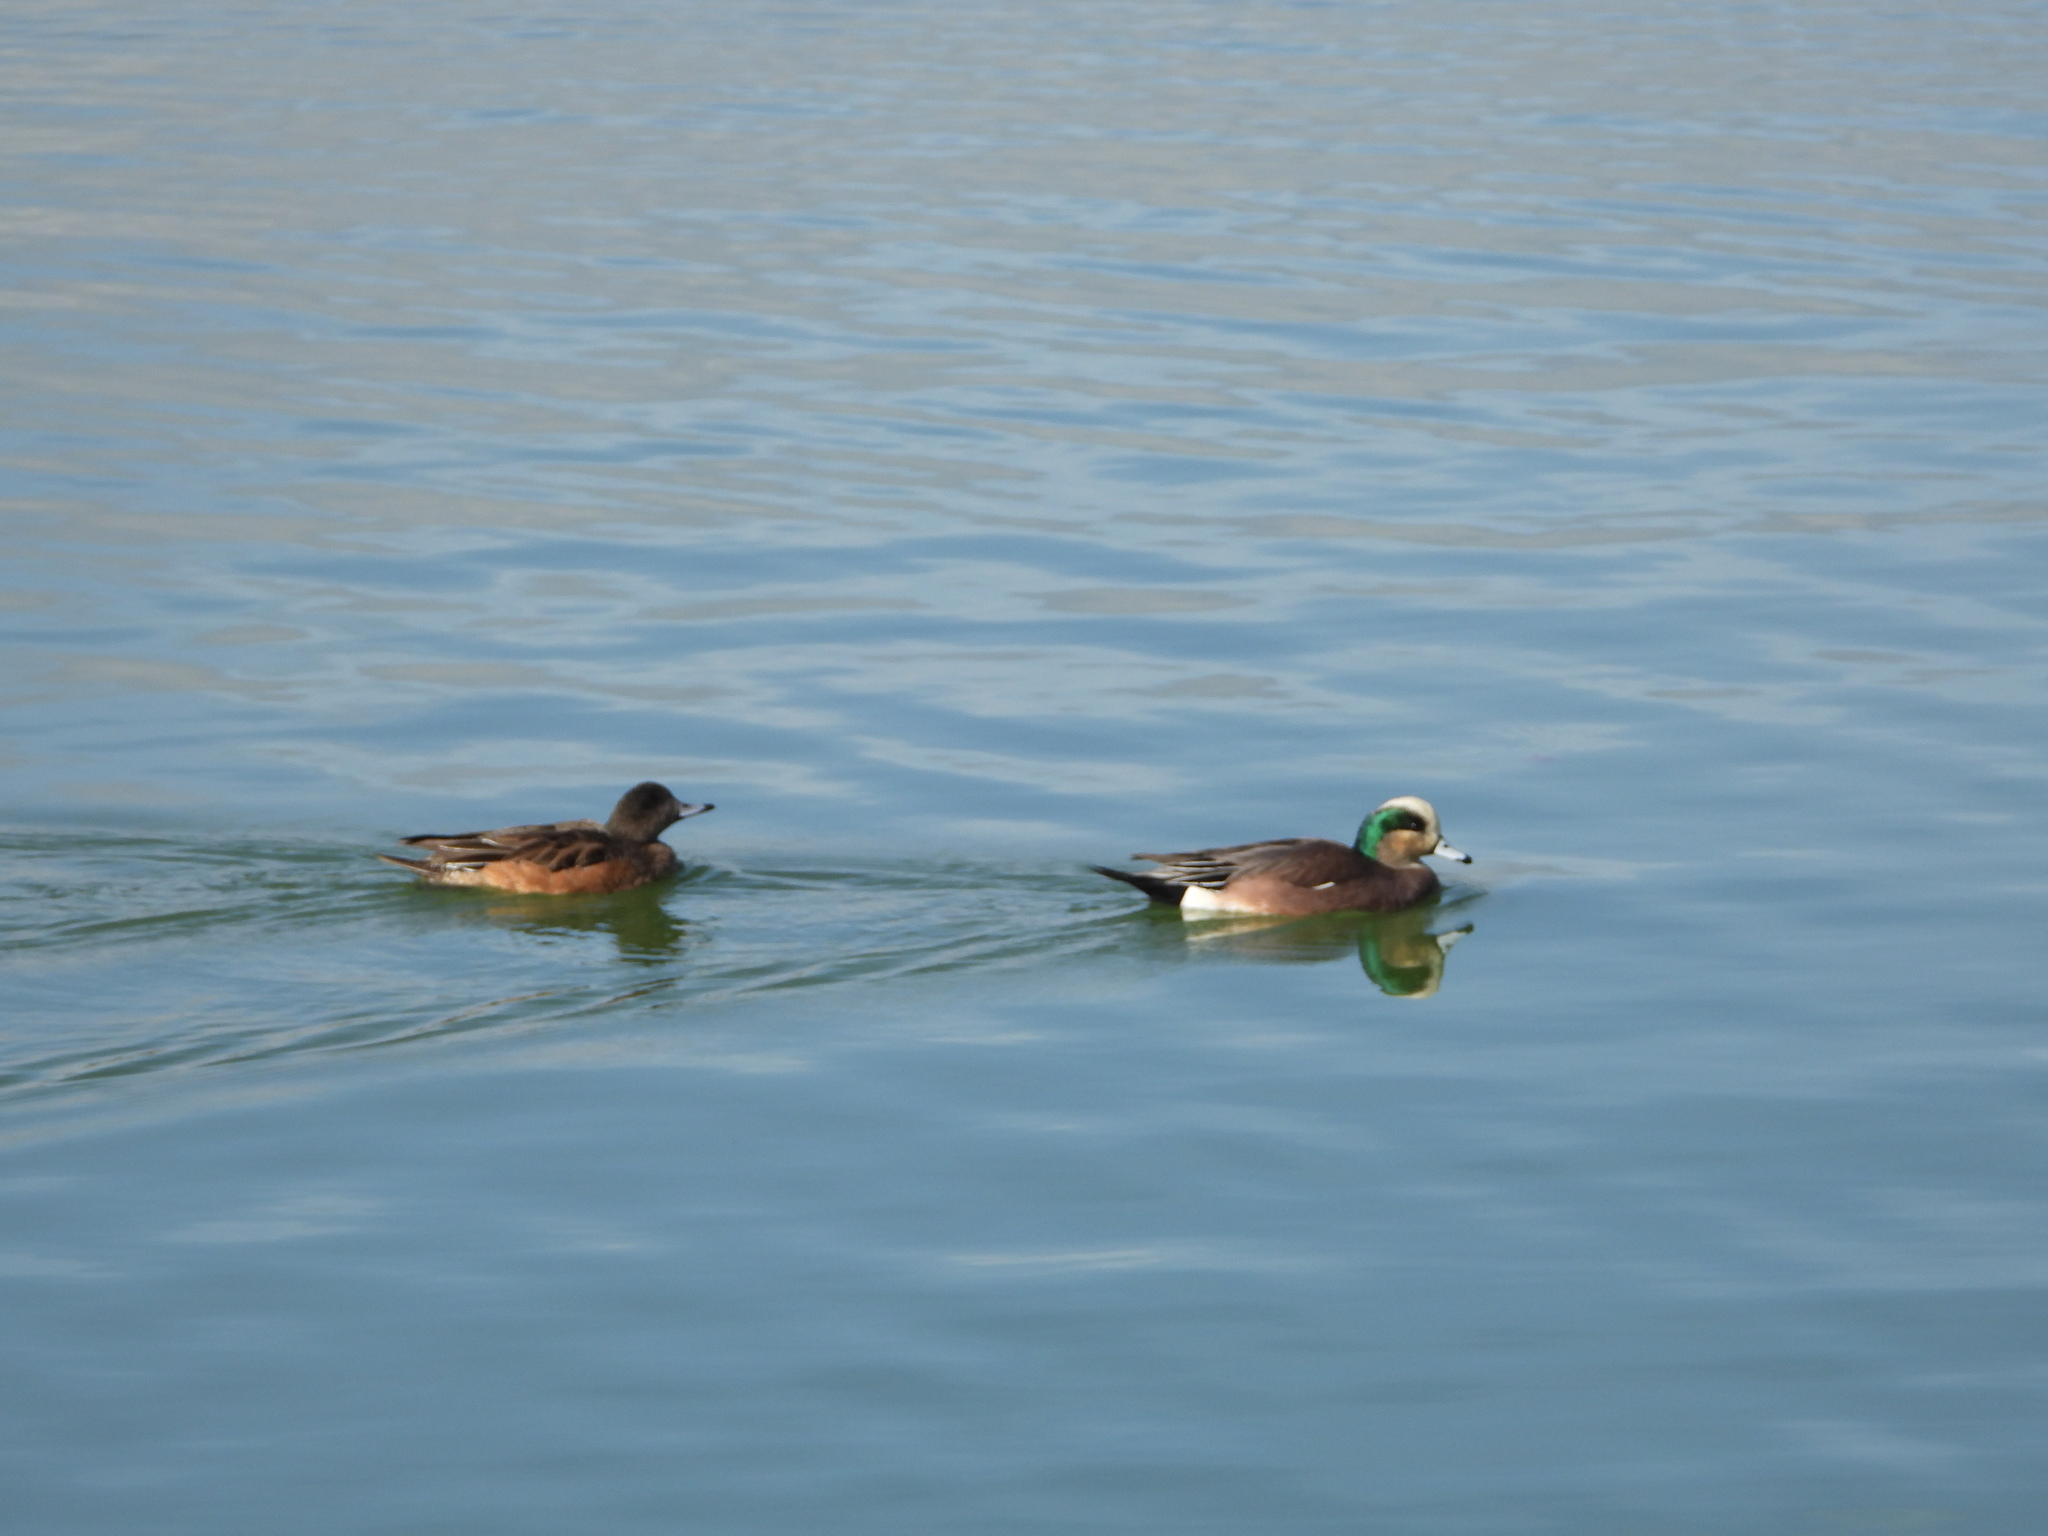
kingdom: Animalia
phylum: Chordata
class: Aves
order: Anseriformes
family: Anatidae
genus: Mareca
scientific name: Mareca americana
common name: American wigeon
